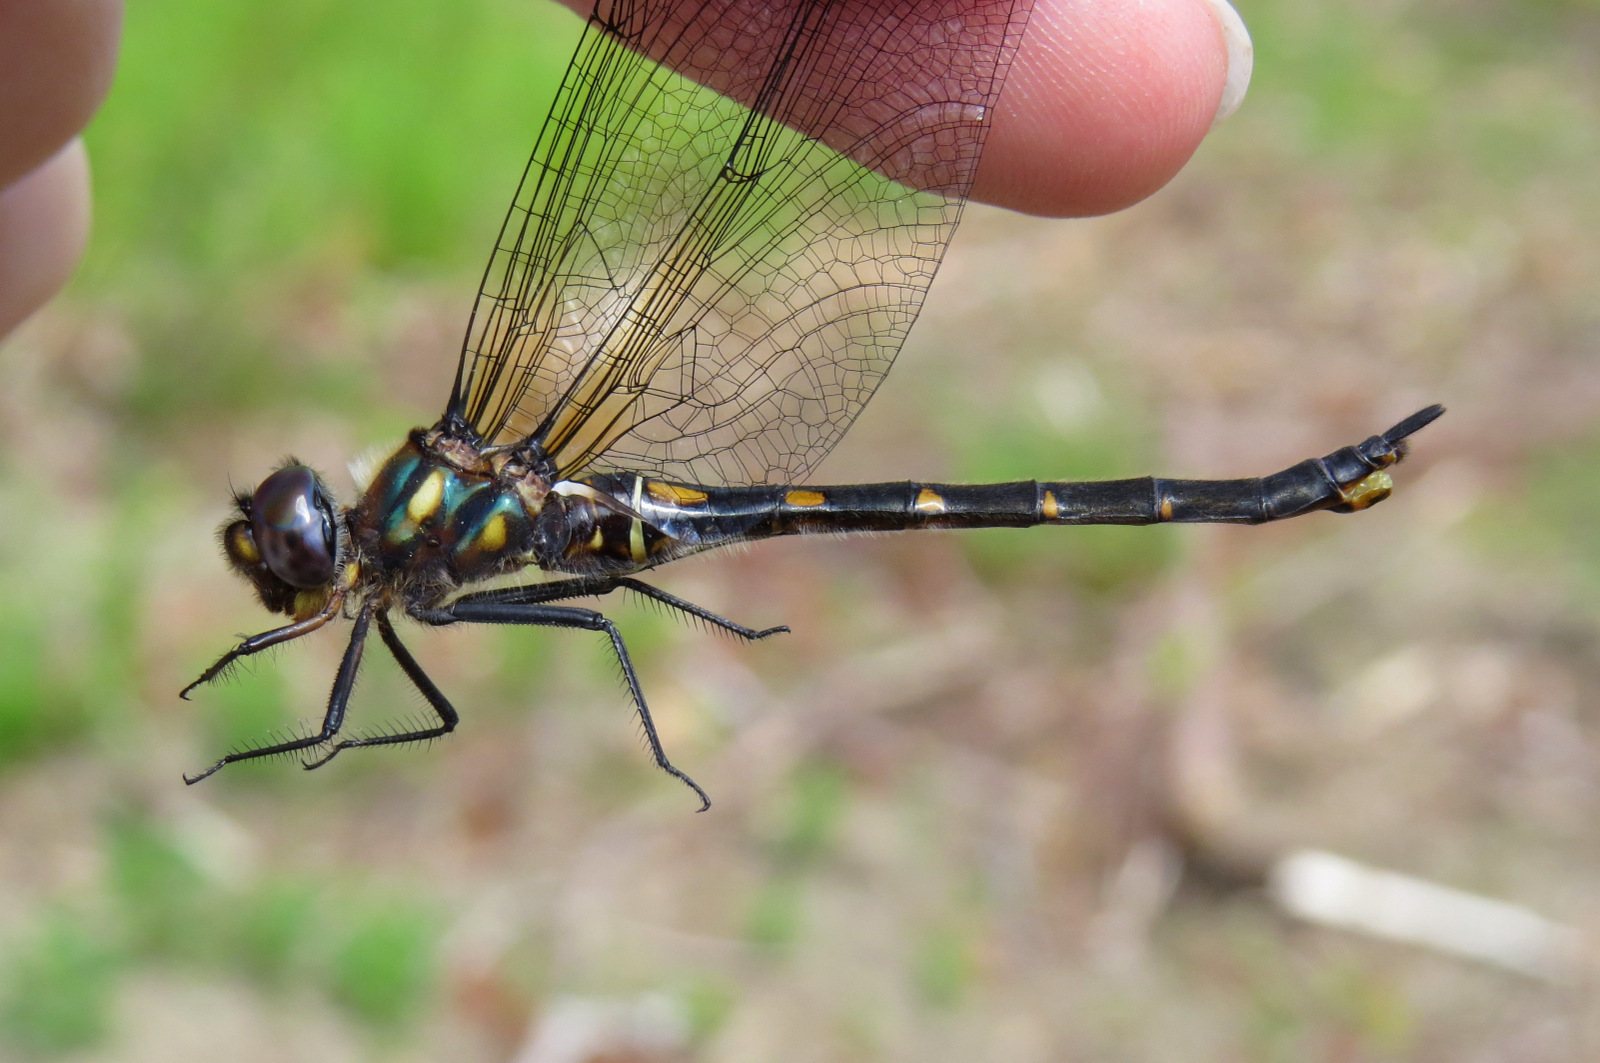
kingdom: Animalia
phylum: Arthropoda
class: Insecta
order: Odonata
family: Corduliidae
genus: Somatochlora
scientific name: Somatochlora forcipata
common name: Forcipate emerald
